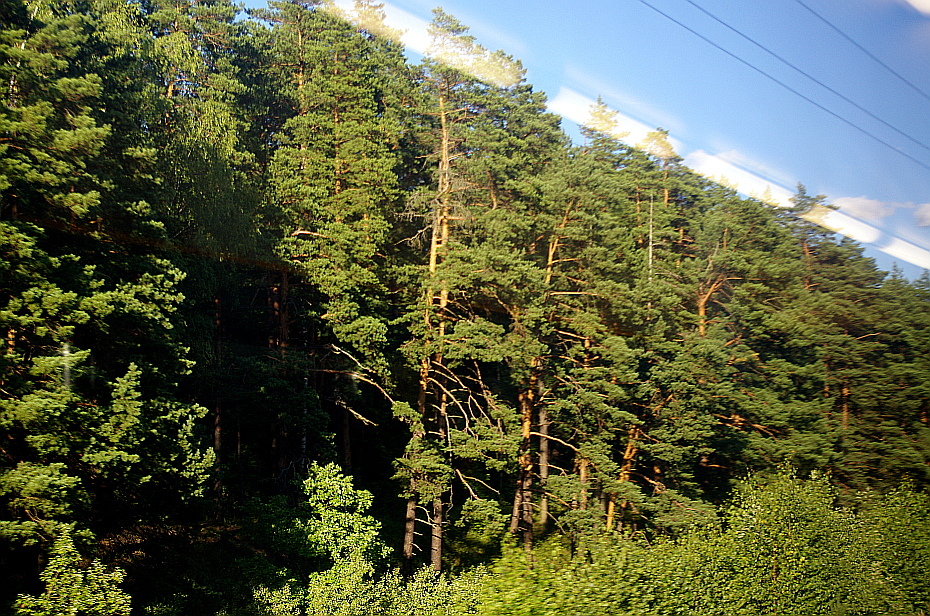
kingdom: Plantae
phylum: Tracheophyta
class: Pinopsida
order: Pinales
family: Pinaceae
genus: Pinus
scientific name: Pinus sylvestris
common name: Scots pine
